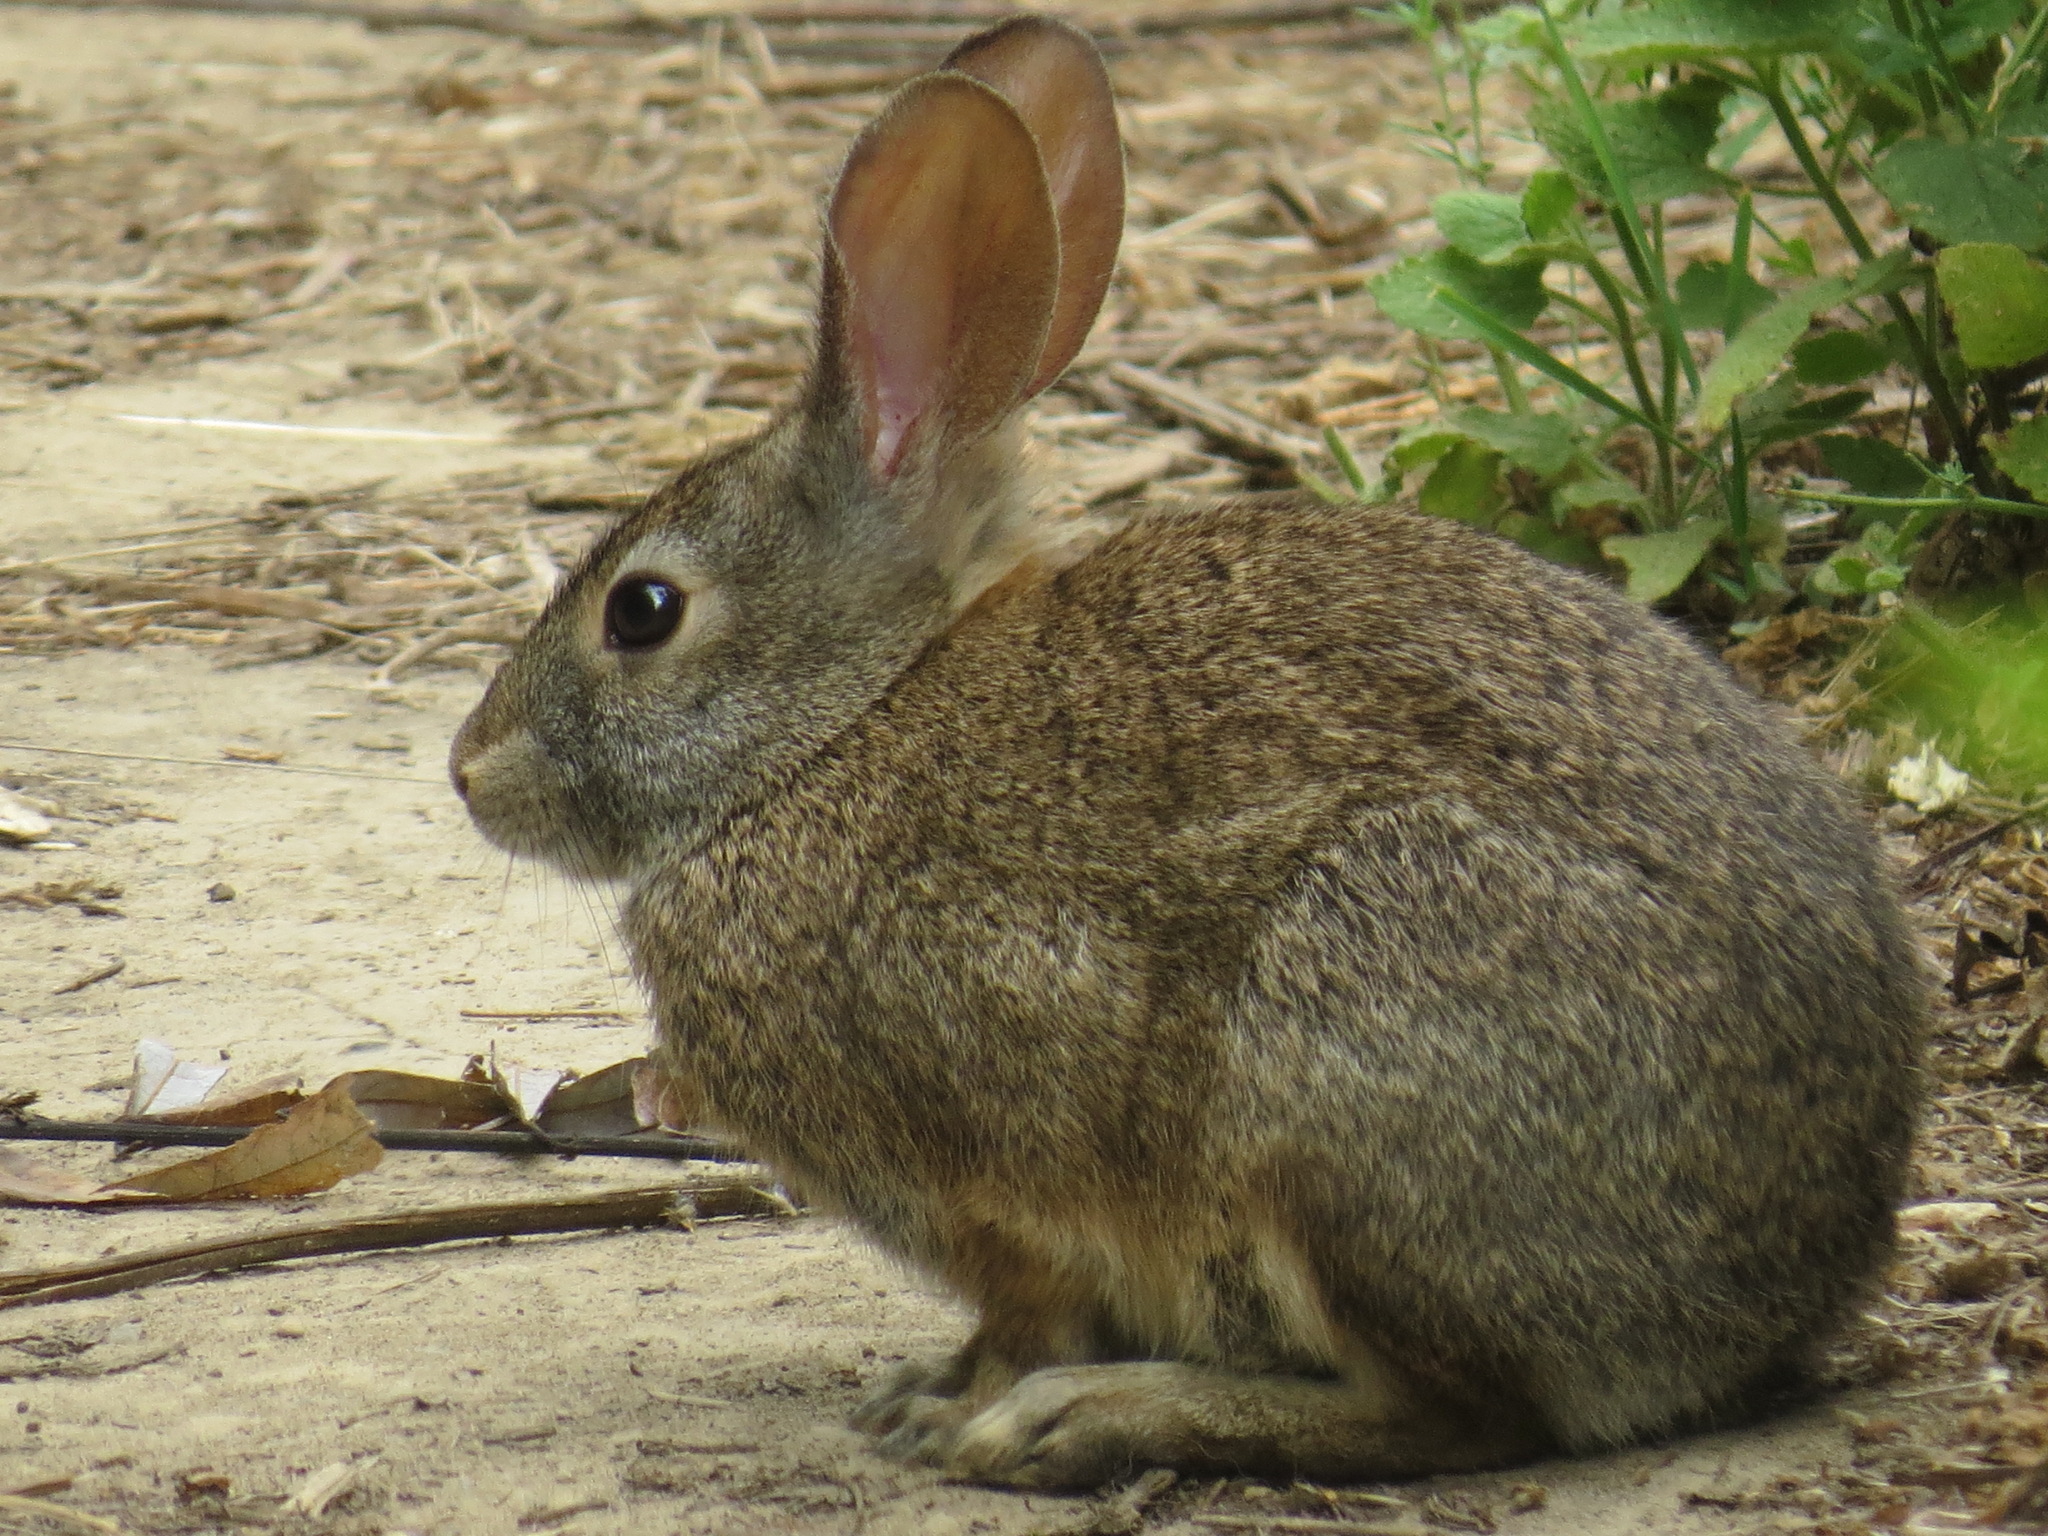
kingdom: Animalia
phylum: Chordata
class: Mammalia
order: Lagomorpha
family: Leporidae
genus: Sylvilagus
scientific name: Sylvilagus bachmani
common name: Brush rabbit
